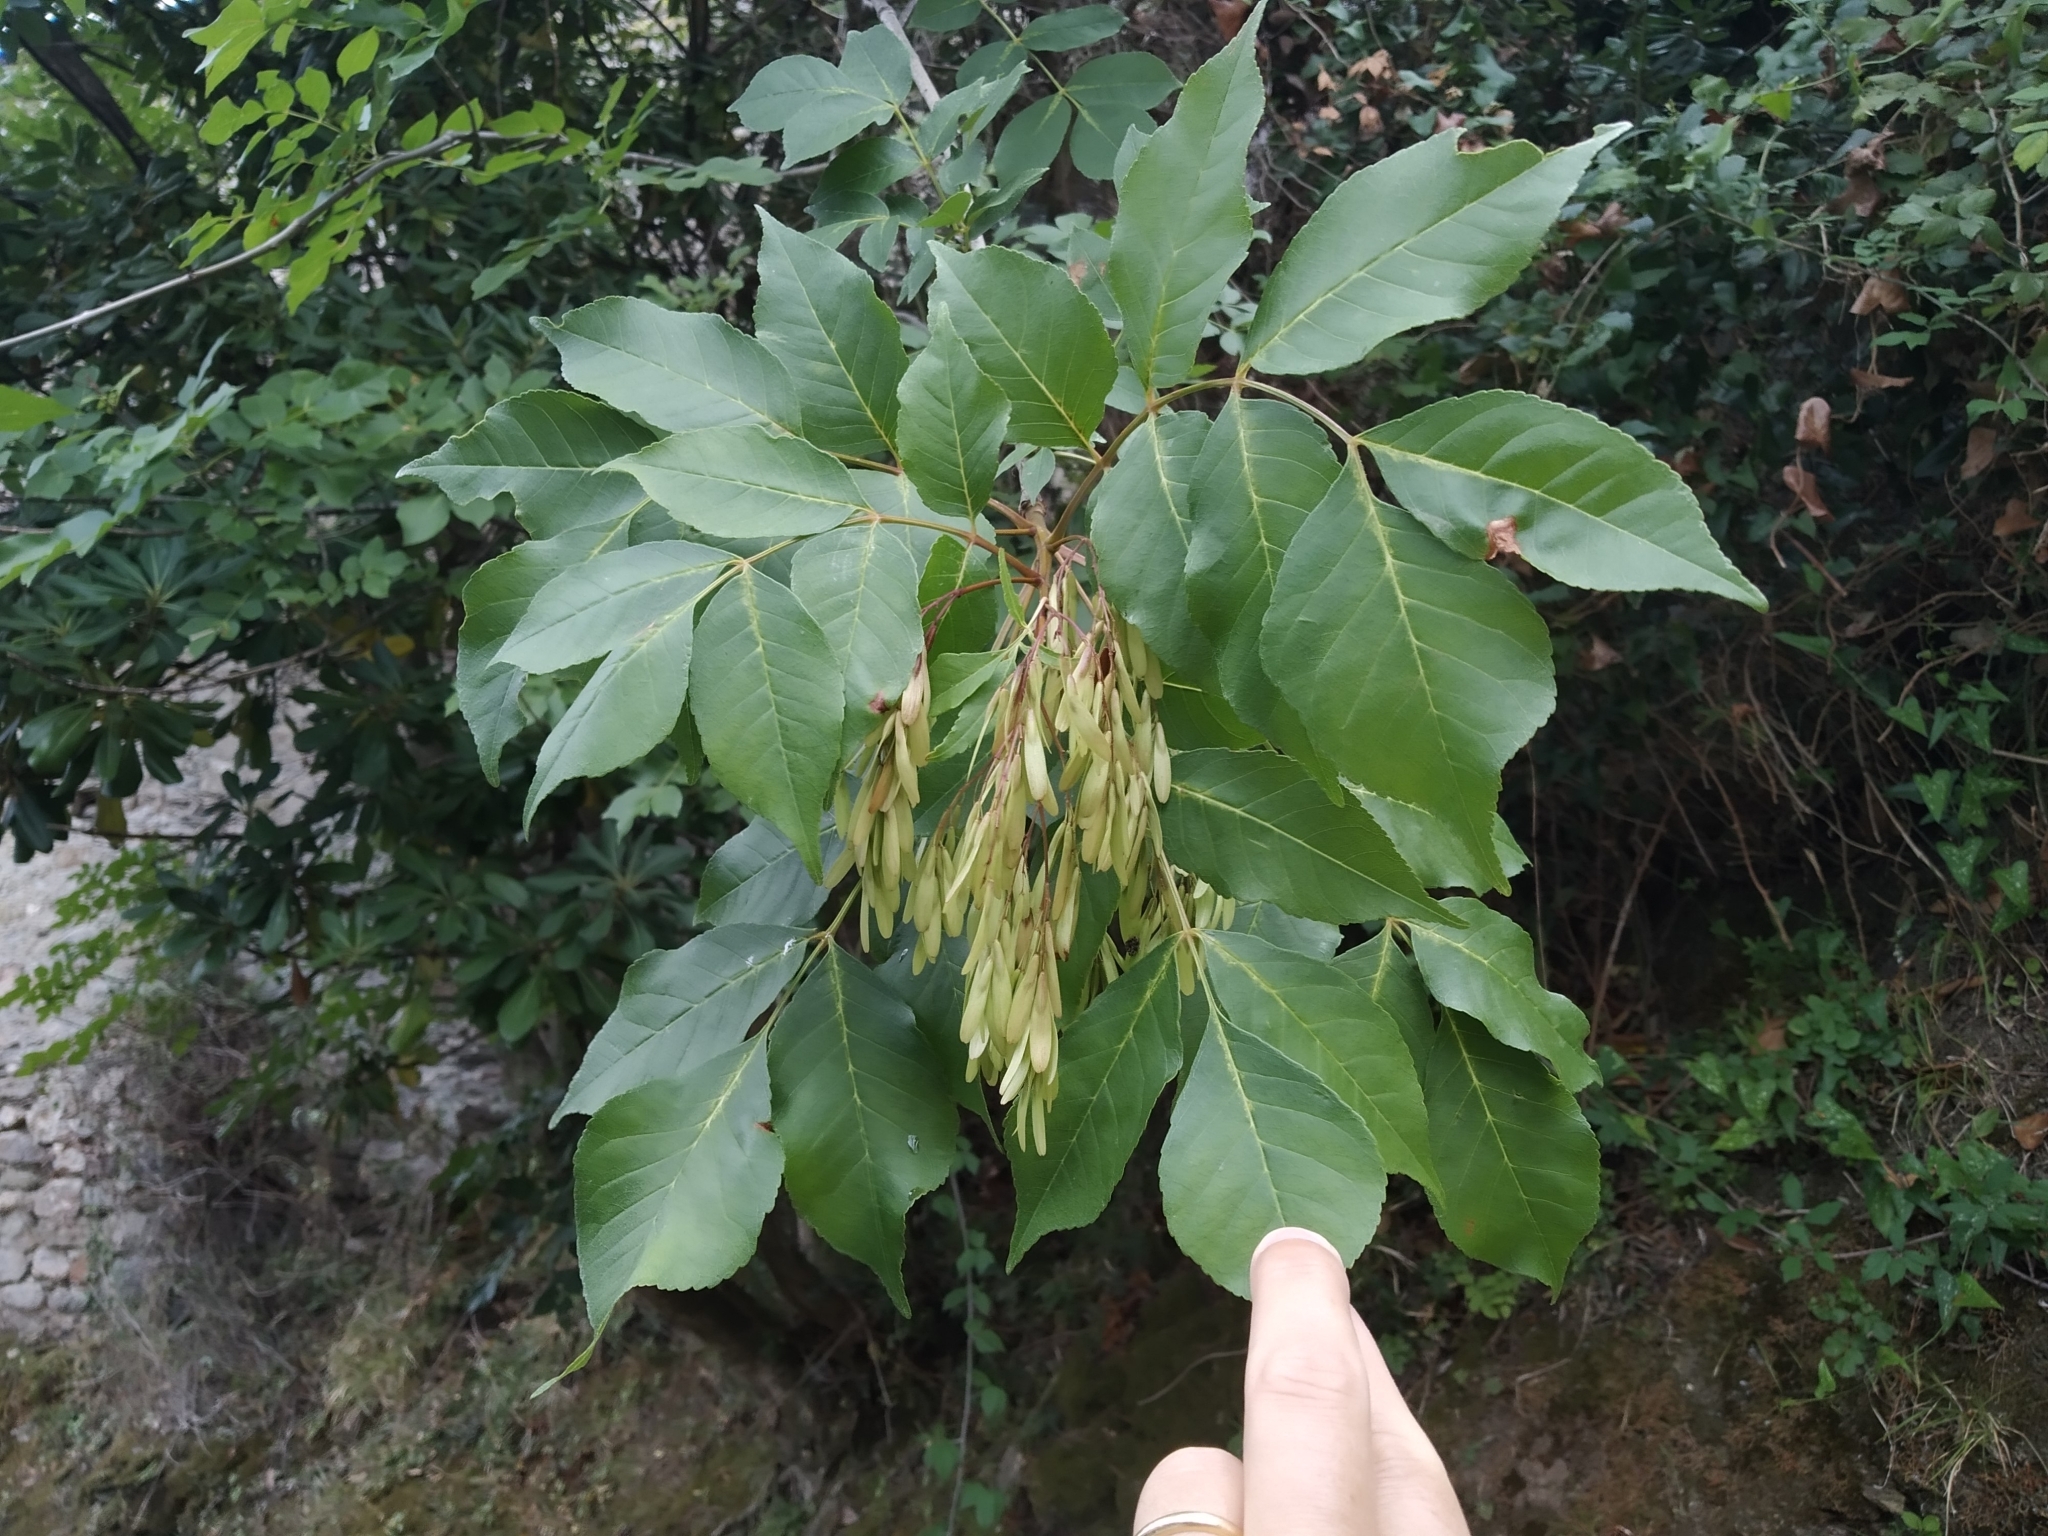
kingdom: Plantae
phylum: Tracheophyta
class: Magnoliopsida
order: Lamiales
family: Oleaceae
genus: Fraxinus
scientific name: Fraxinus ornus
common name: Manna ash
